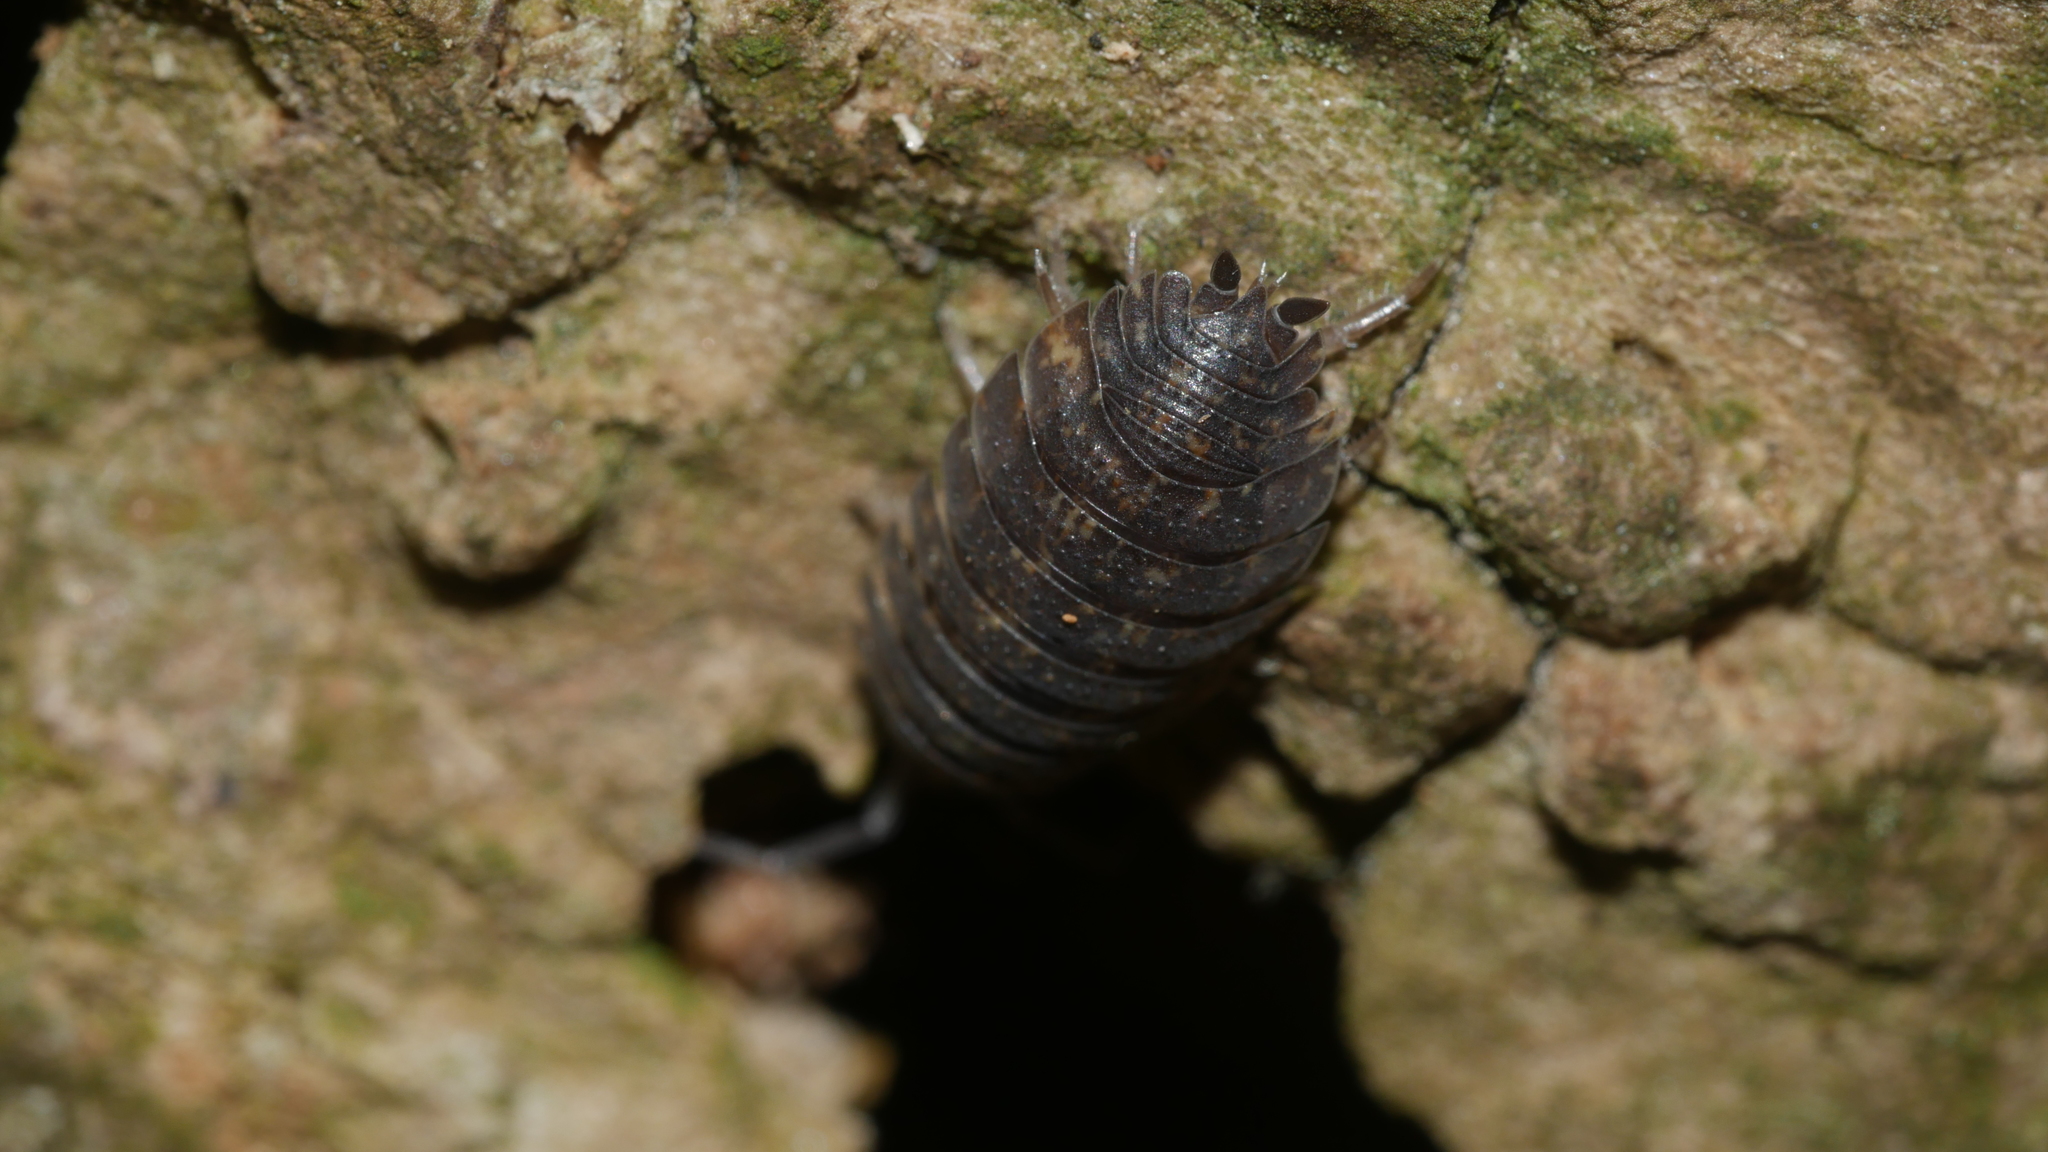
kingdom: Animalia
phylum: Arthropoda
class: Malacostraca
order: Isopoda
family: Porcellionidae
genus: Porcellio
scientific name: Porcellio scaber
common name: Common rough woodlouse
